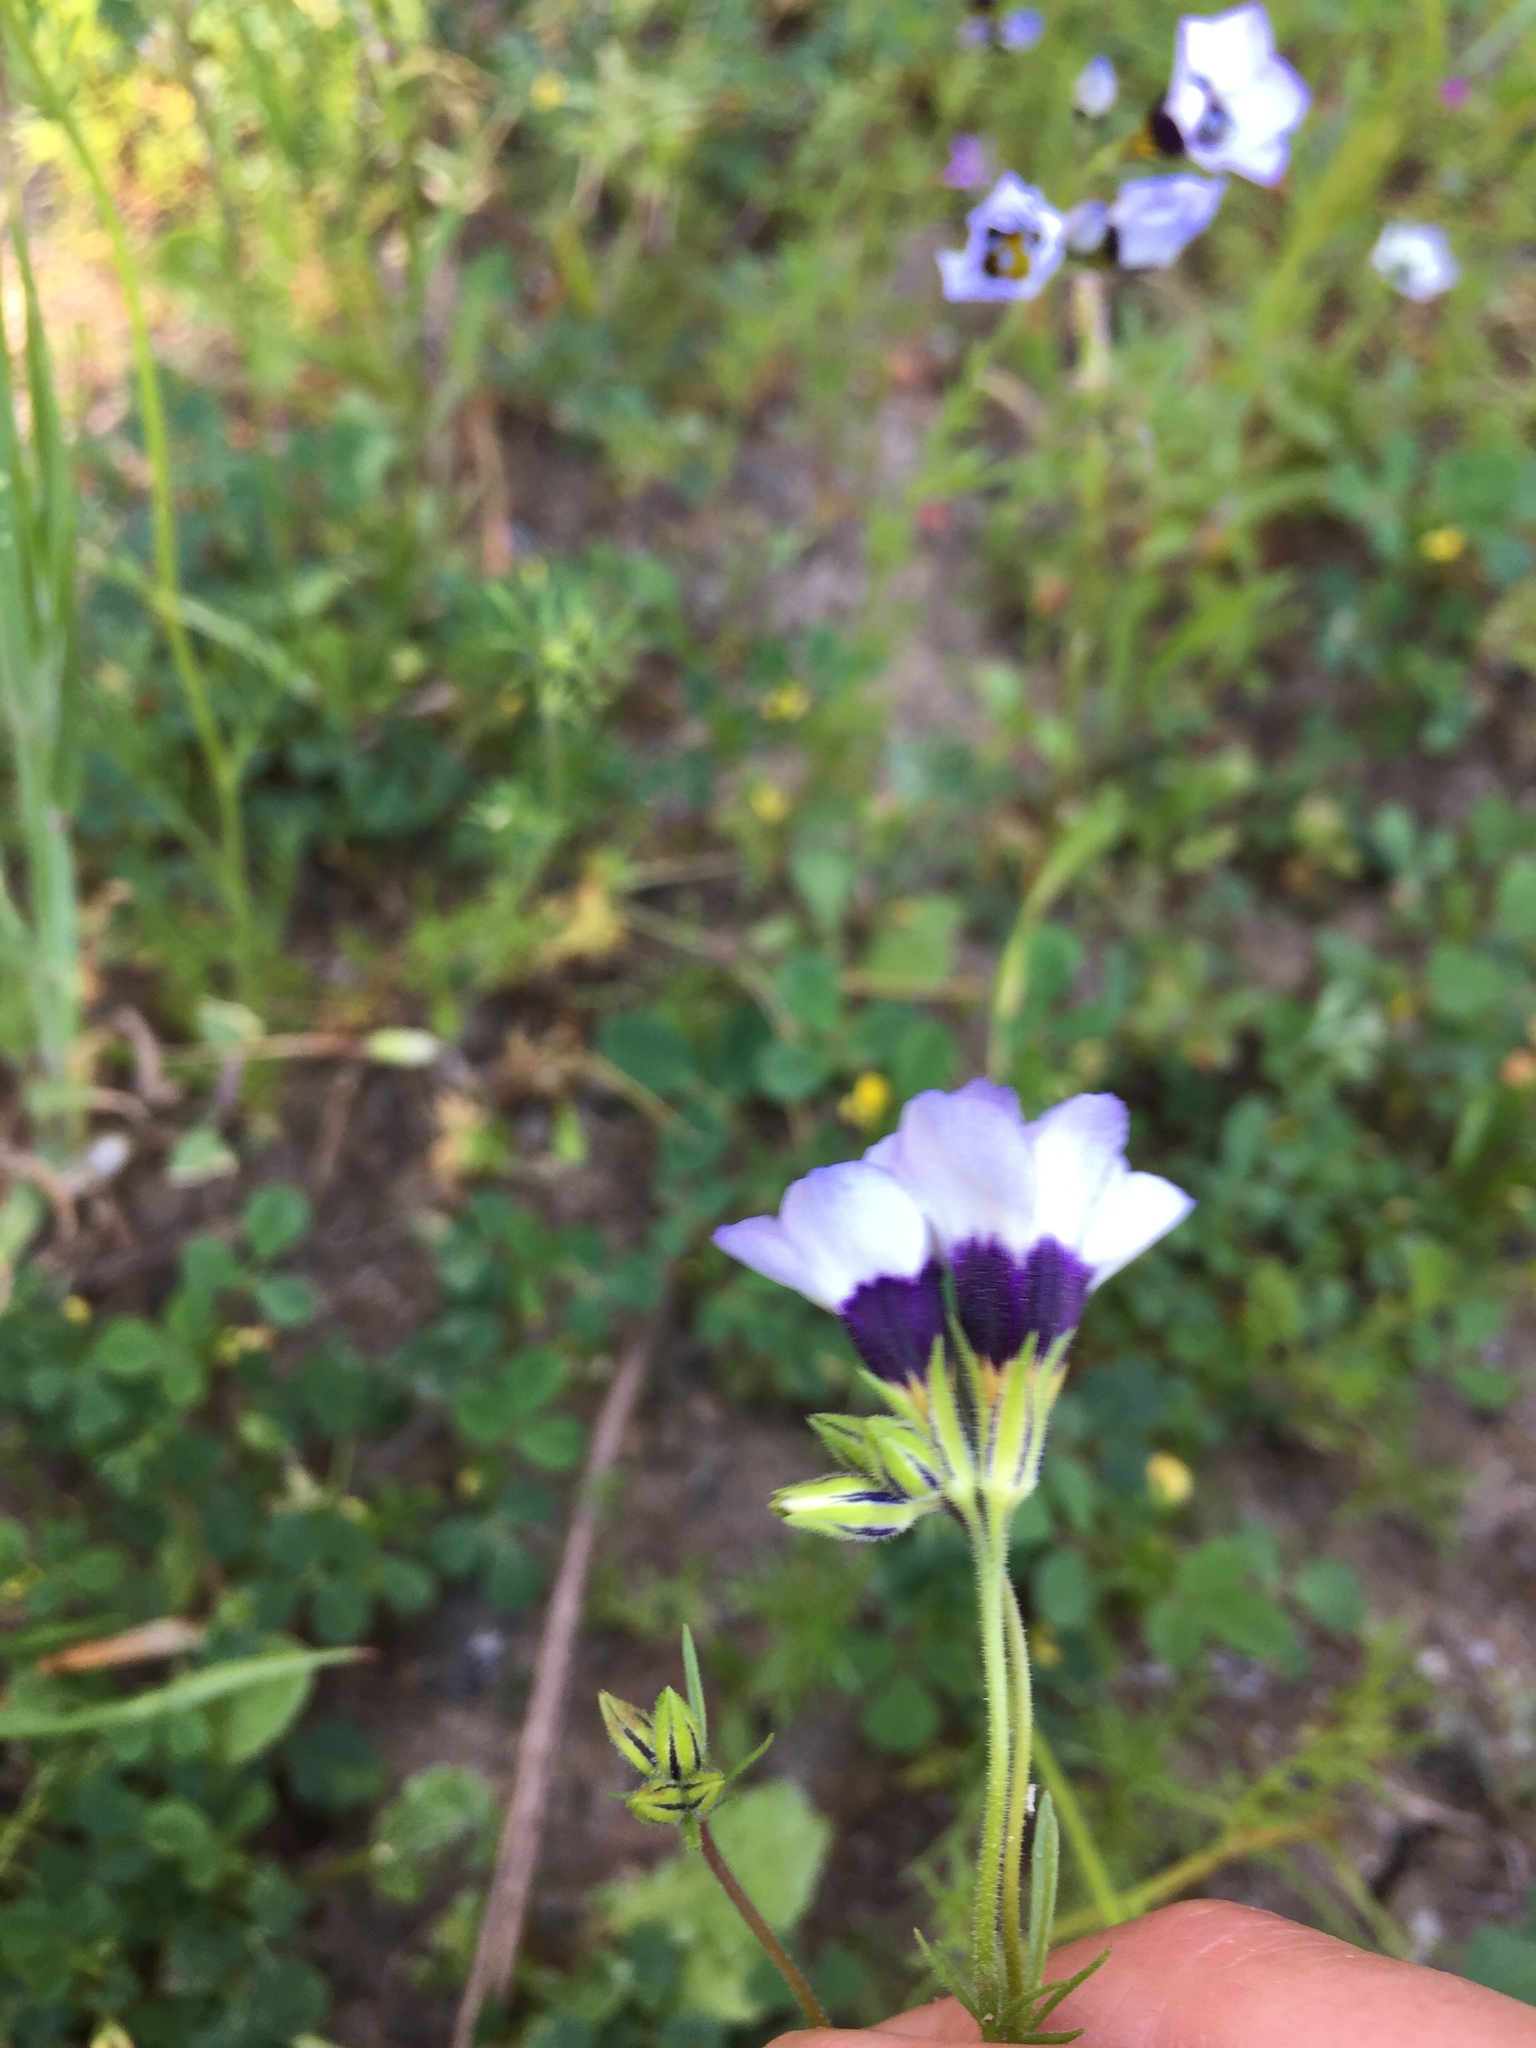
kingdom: Plantae
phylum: Tracheophyta
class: Magnoliopsida
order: Ericales
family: Polemoniaceae
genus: Gilia
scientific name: Gilia tricolor
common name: Bird's-eyes
